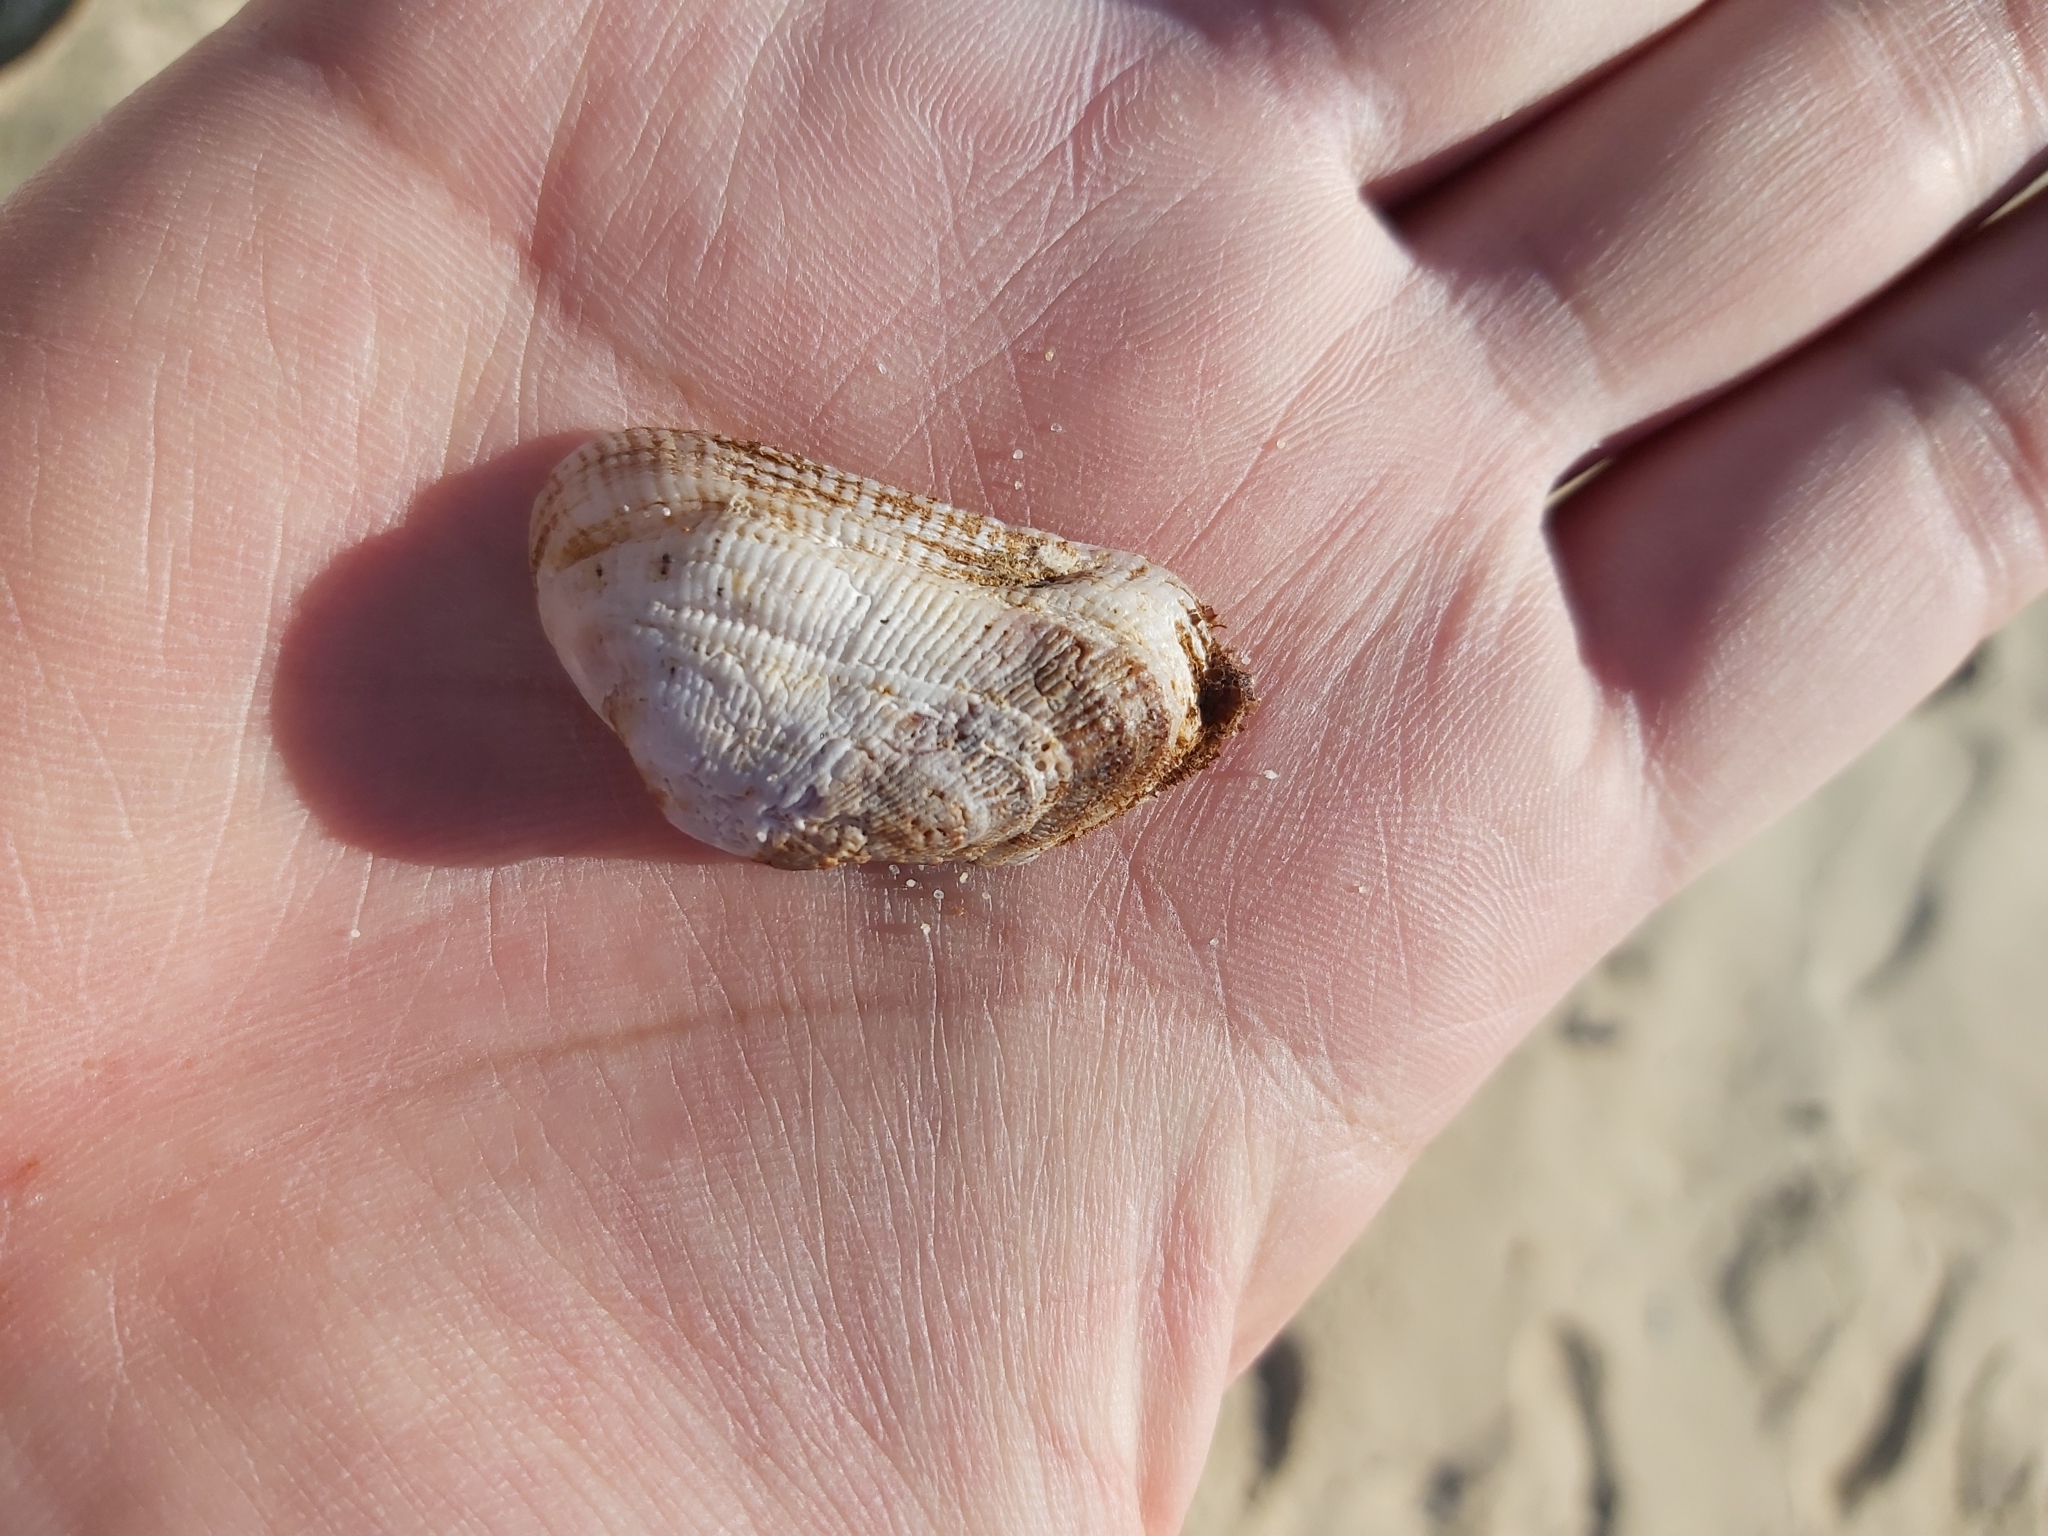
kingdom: Animalia
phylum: Mollusca
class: Bivalvia
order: Arcida
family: Arcidae
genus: Barbatia
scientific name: Barbatia pistachia
